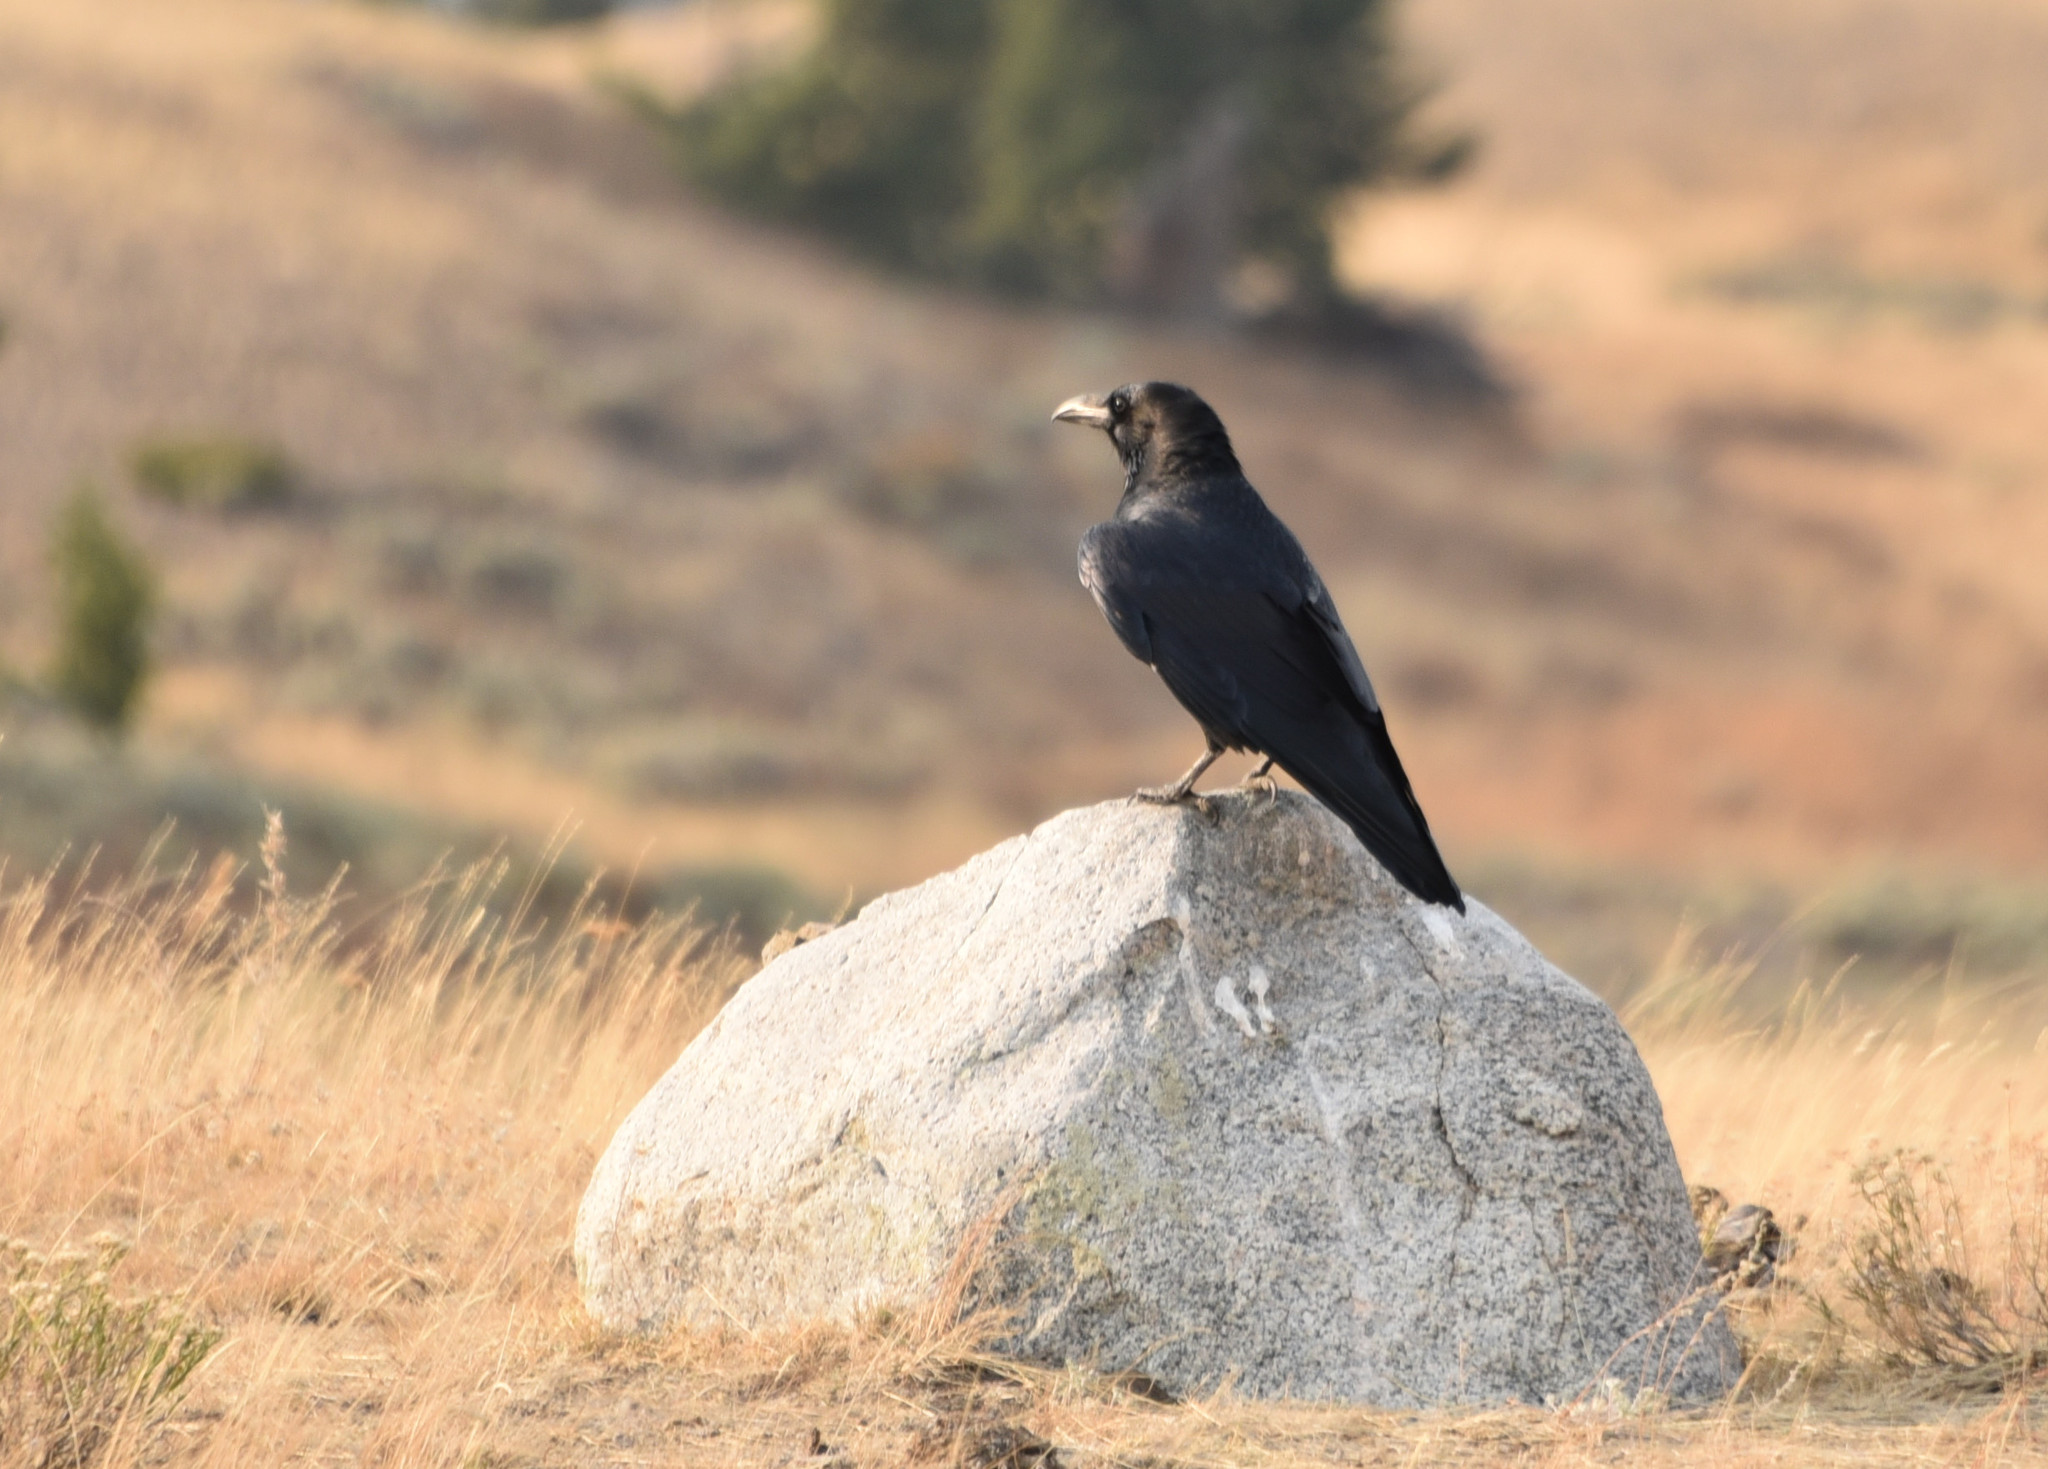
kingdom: Animalia
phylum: Chordata
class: Aves
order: Passeriformes
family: Corvidae
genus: Corvus
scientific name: Corvus corax
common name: Common raven
